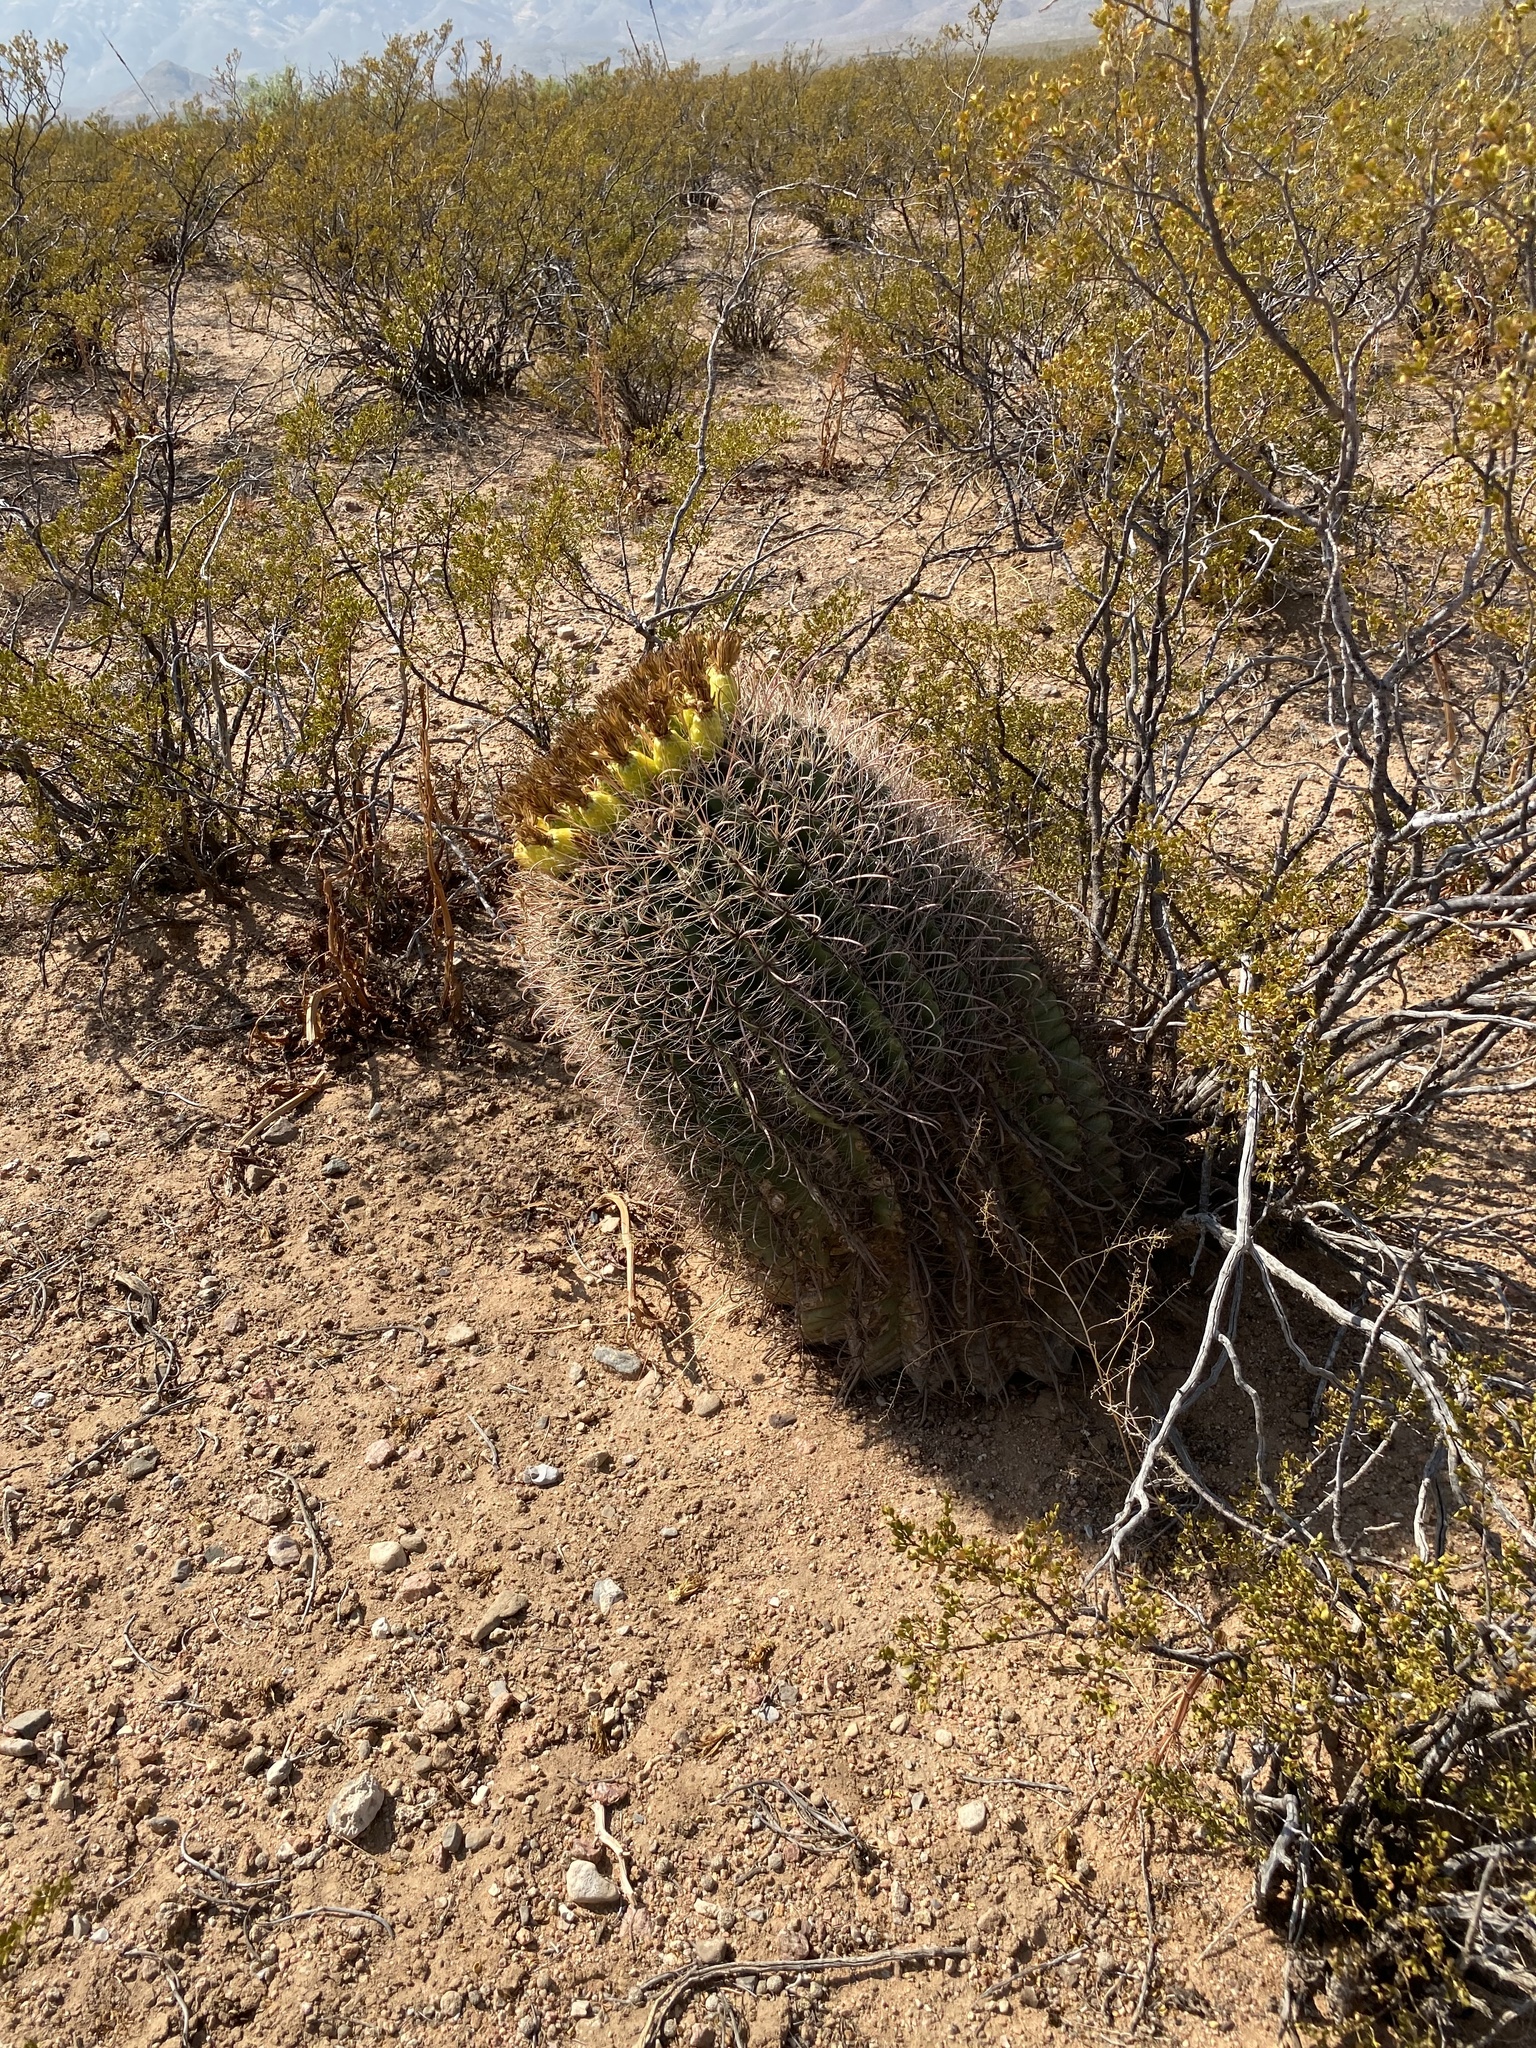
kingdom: Plantae
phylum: Tracheophyta
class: Magnoliopsida
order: Caryophyllales
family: Cactaceae
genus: Ferocactus
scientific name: Ferocactus wislizeni
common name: Candy barrel cactus
